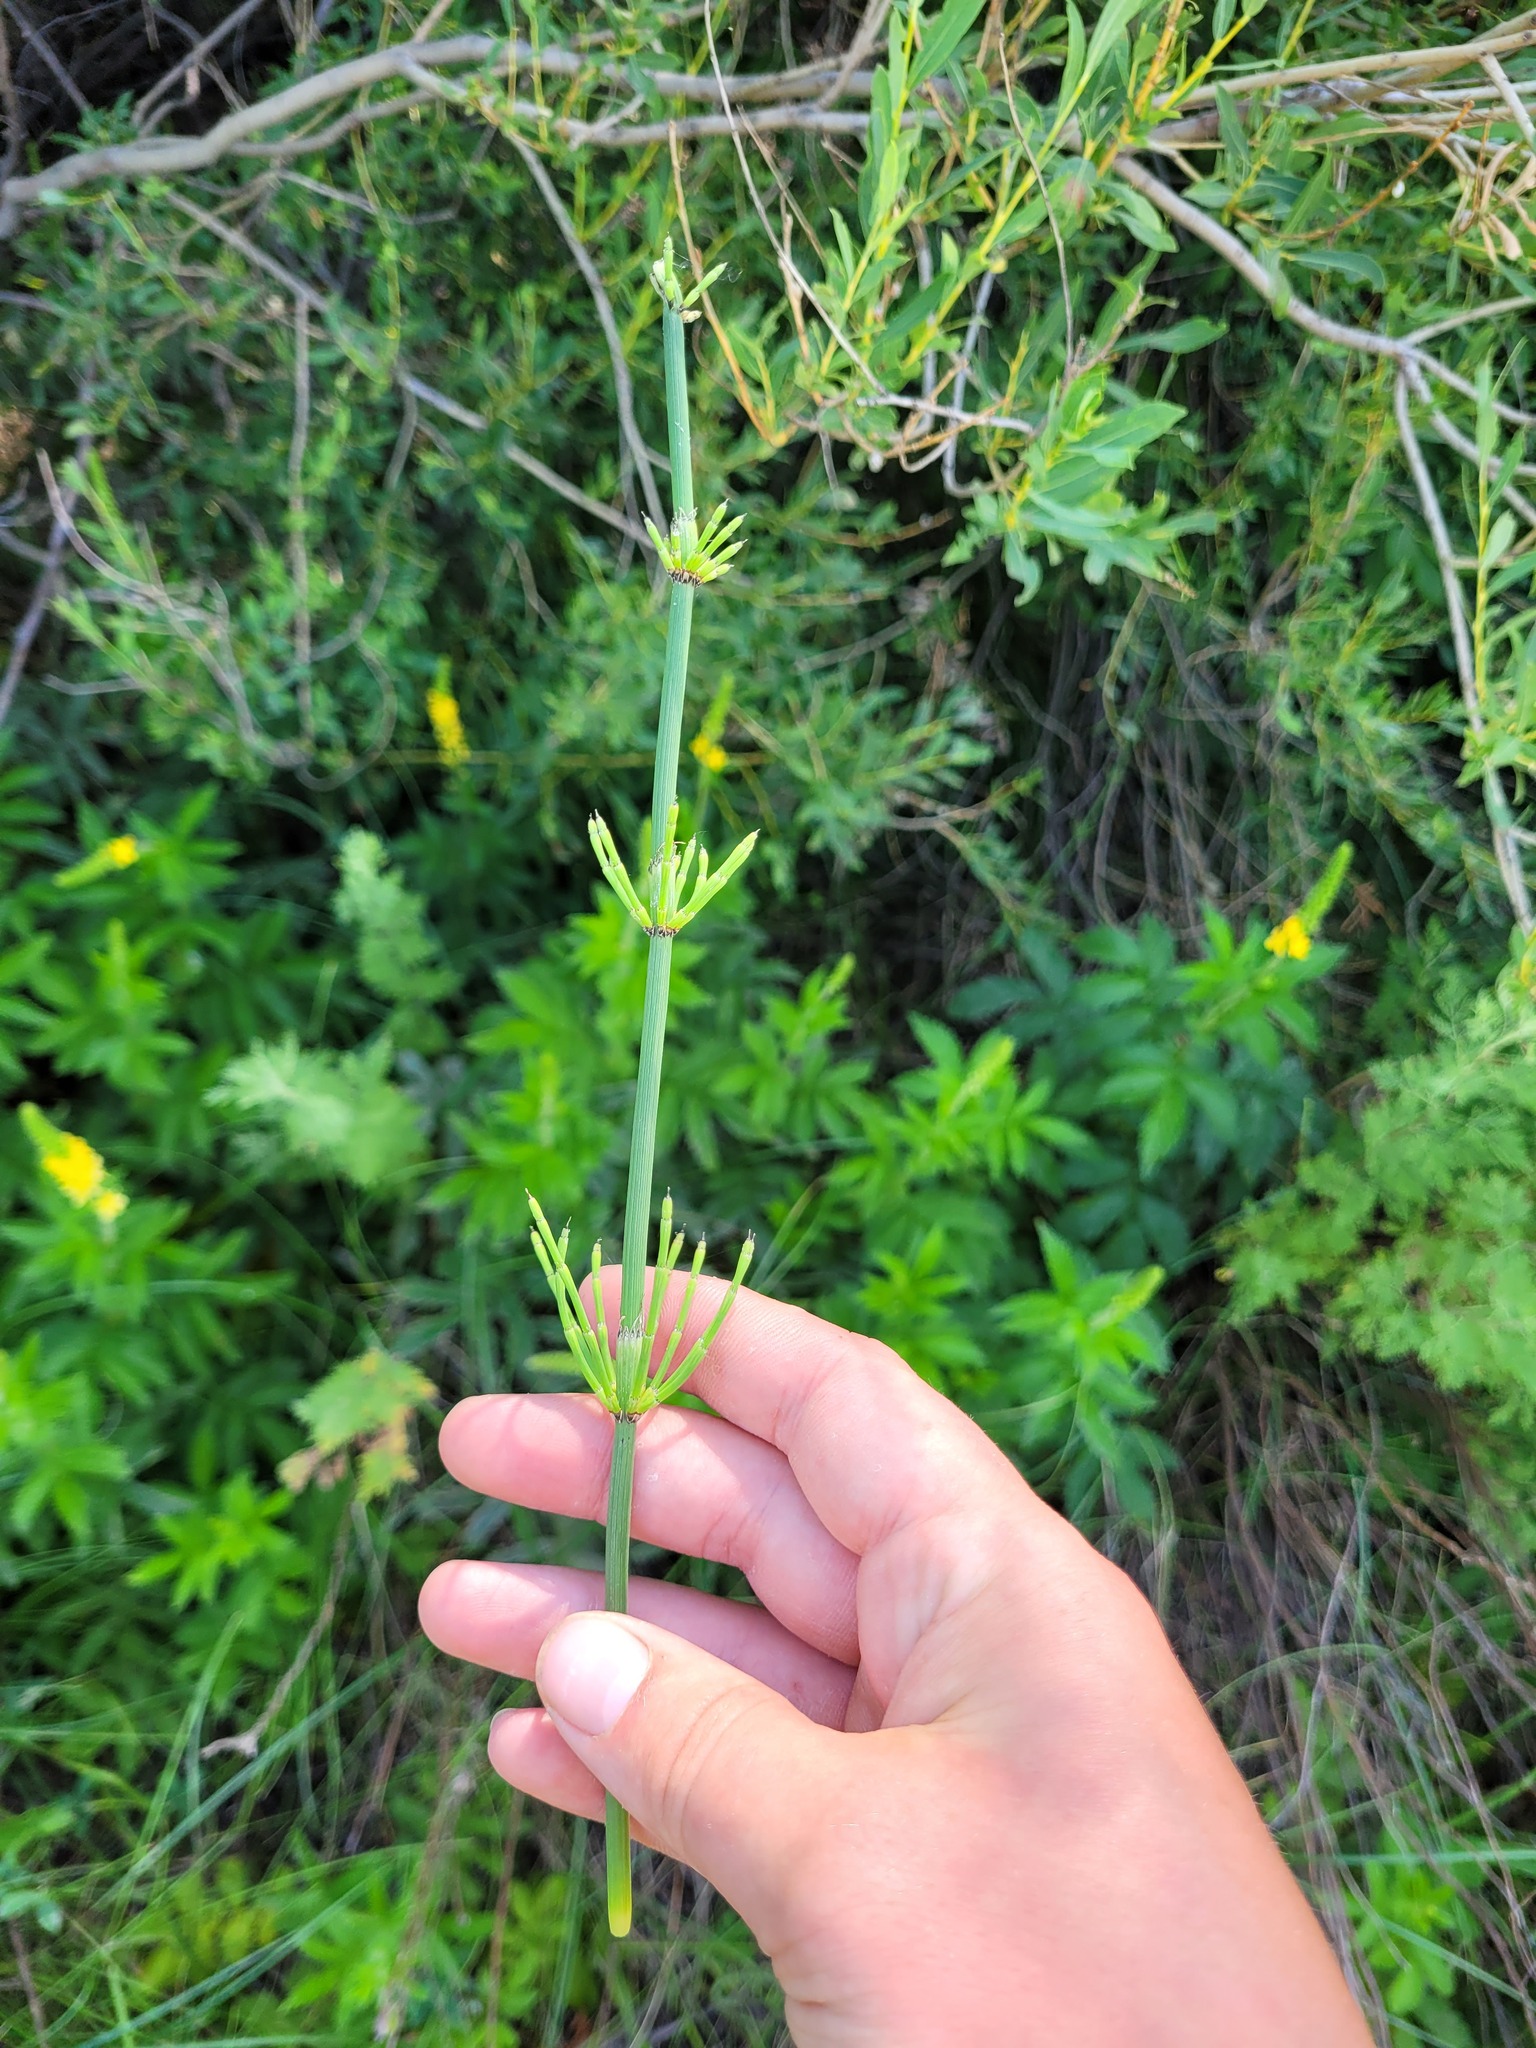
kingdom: Plantae
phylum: Tracheophyta
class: Polypodiopsida
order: Equisetales
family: Equisetaceae
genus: Equisetum
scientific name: Equisetum ramosissimum
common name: Branched horsetail
